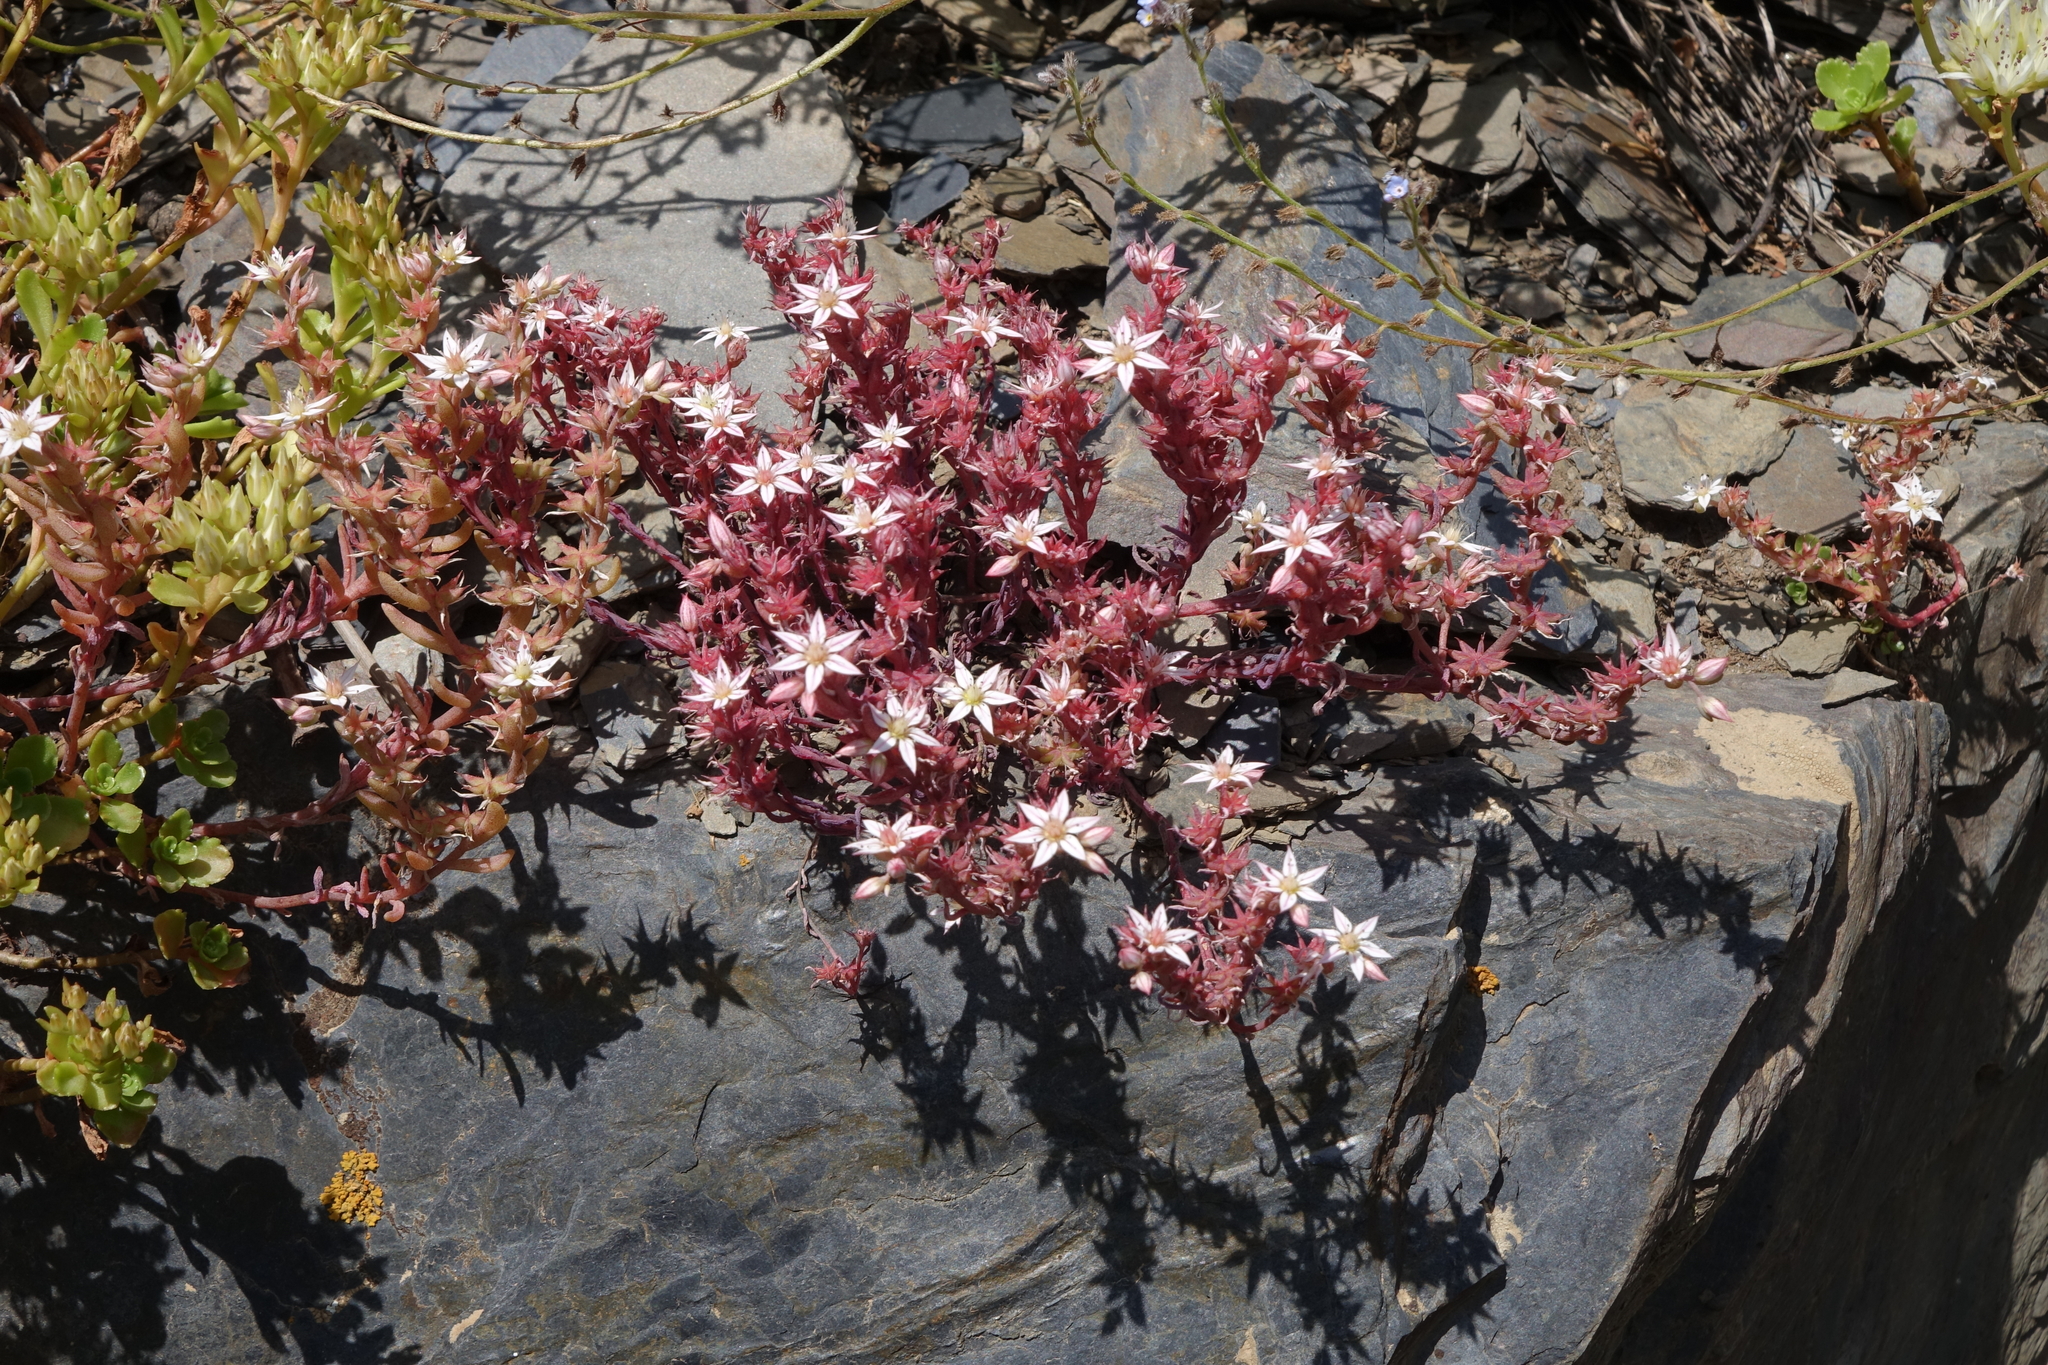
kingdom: Plantae
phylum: Tracheophyta
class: Magnoliopsida
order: Saxifragales
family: Crassulaceae
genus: Sedum
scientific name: Sedum hispanicum
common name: Spanish stonecrop
